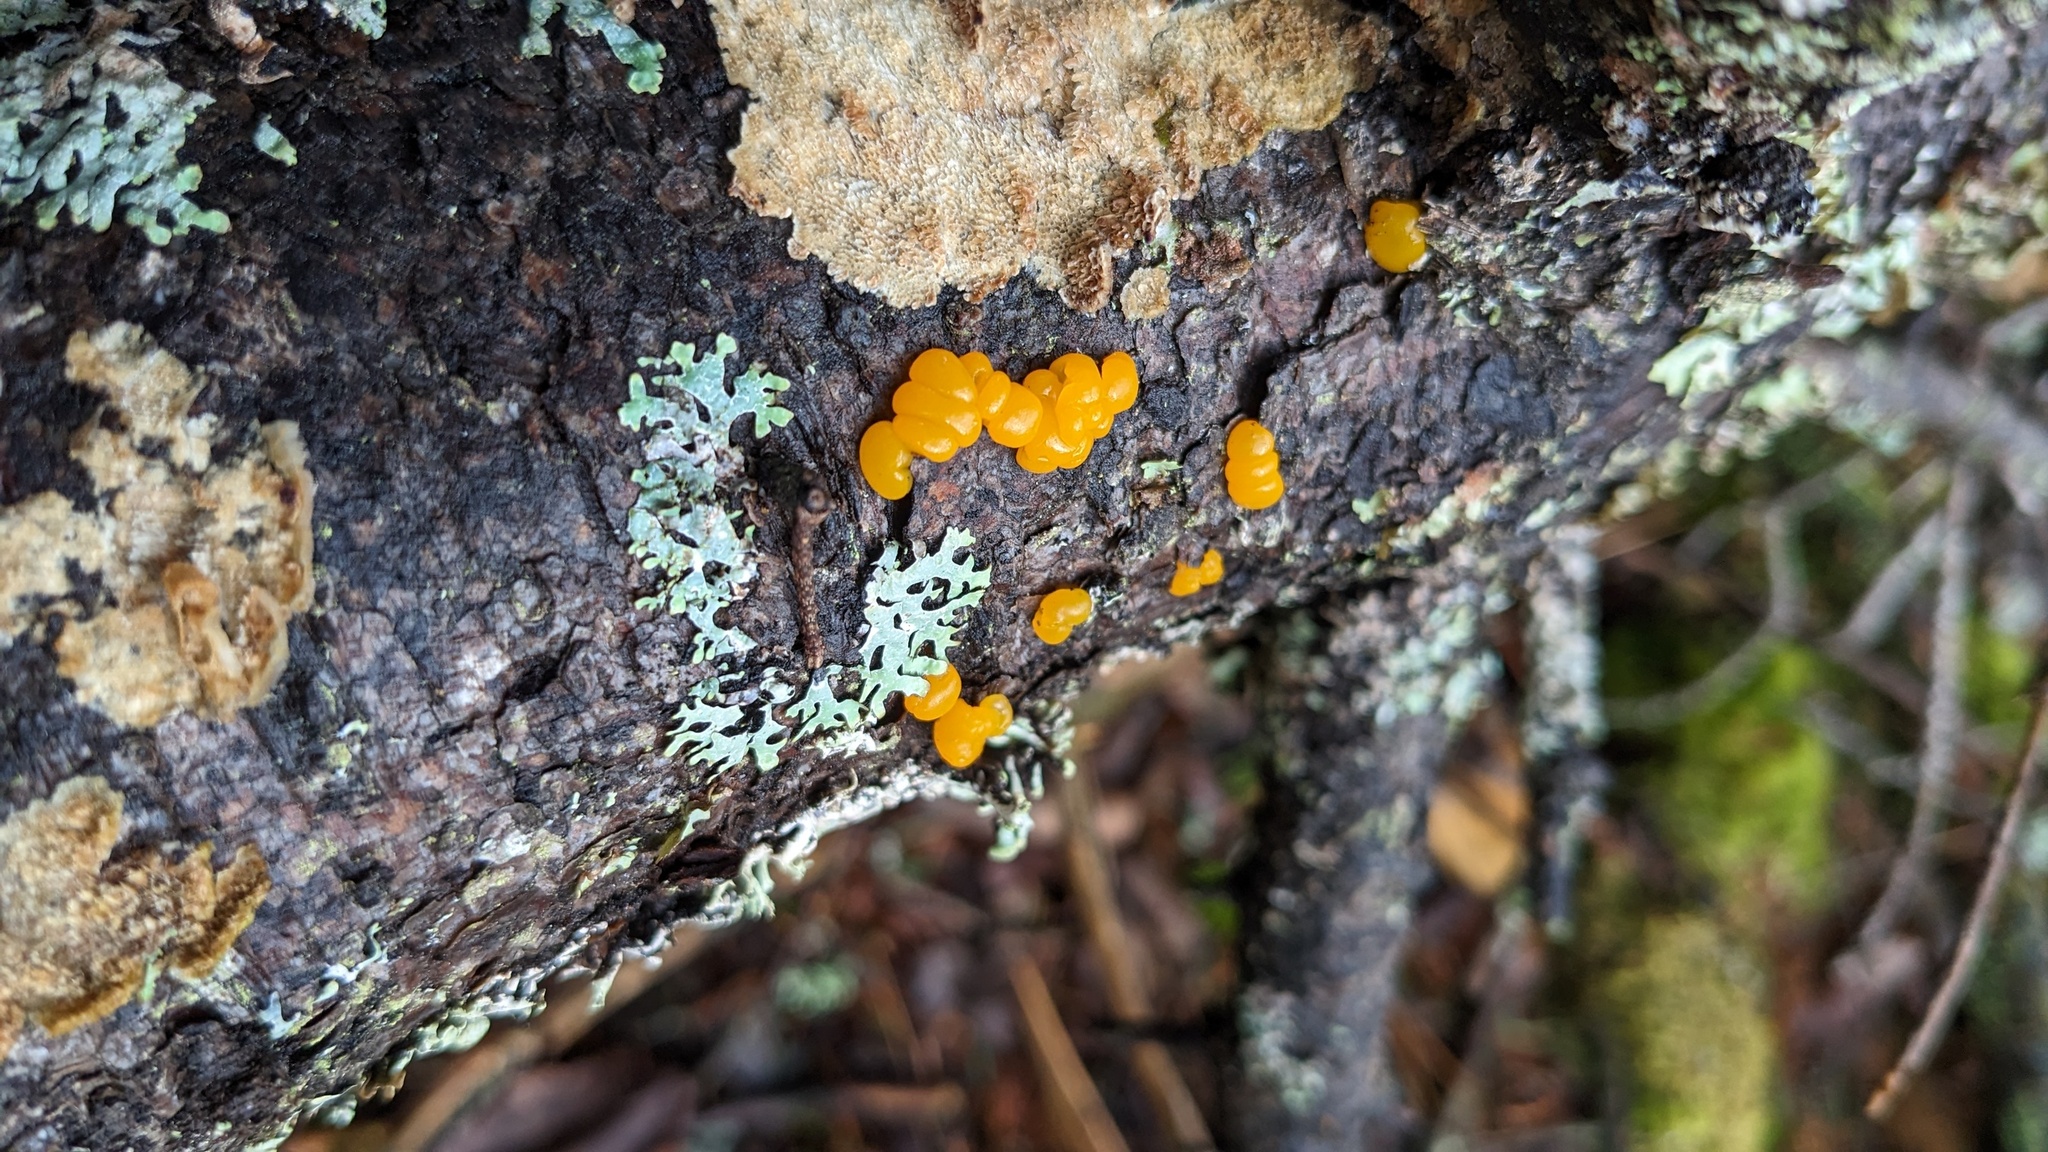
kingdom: Fungi
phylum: Basidiomycota
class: Dacrymycetes
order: Dacrymycetales
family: Dacrymycetaceae
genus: Dacrymyces
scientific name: Dacrymyces chrysospermus
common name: Orange jelly spot
